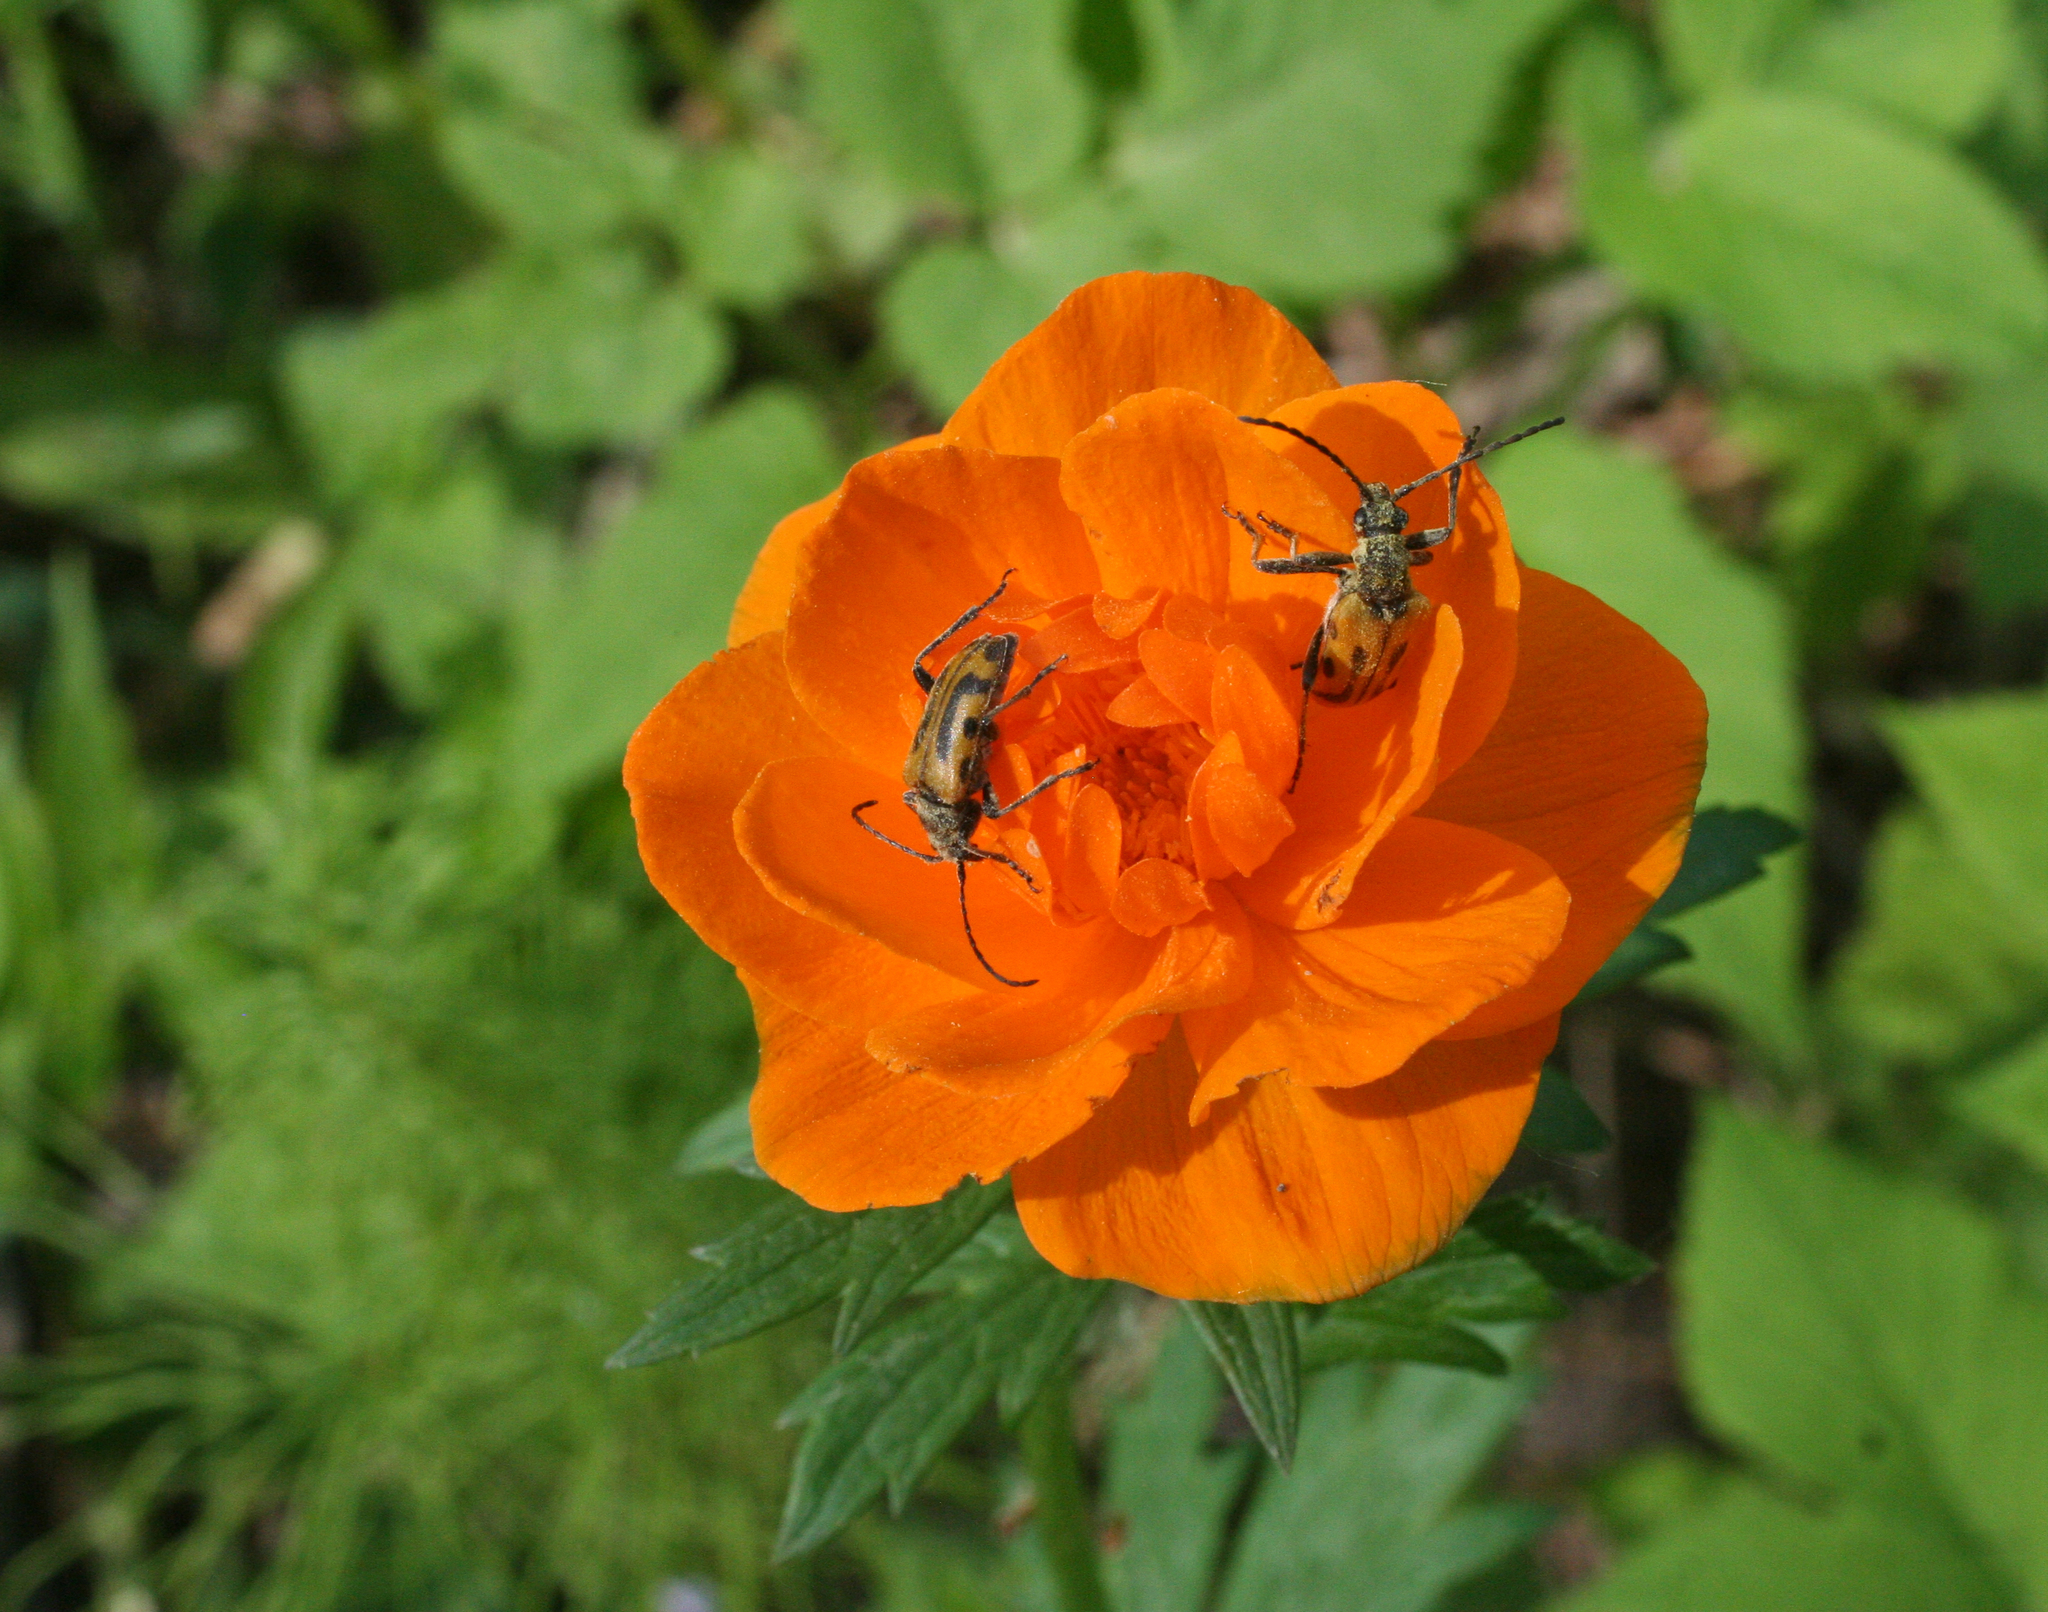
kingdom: Plantae
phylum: Tracheophyta
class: Magnoliopsida
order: Ranunculales
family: Ranunculaceae
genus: Trollius
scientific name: Trollius asiaticus
